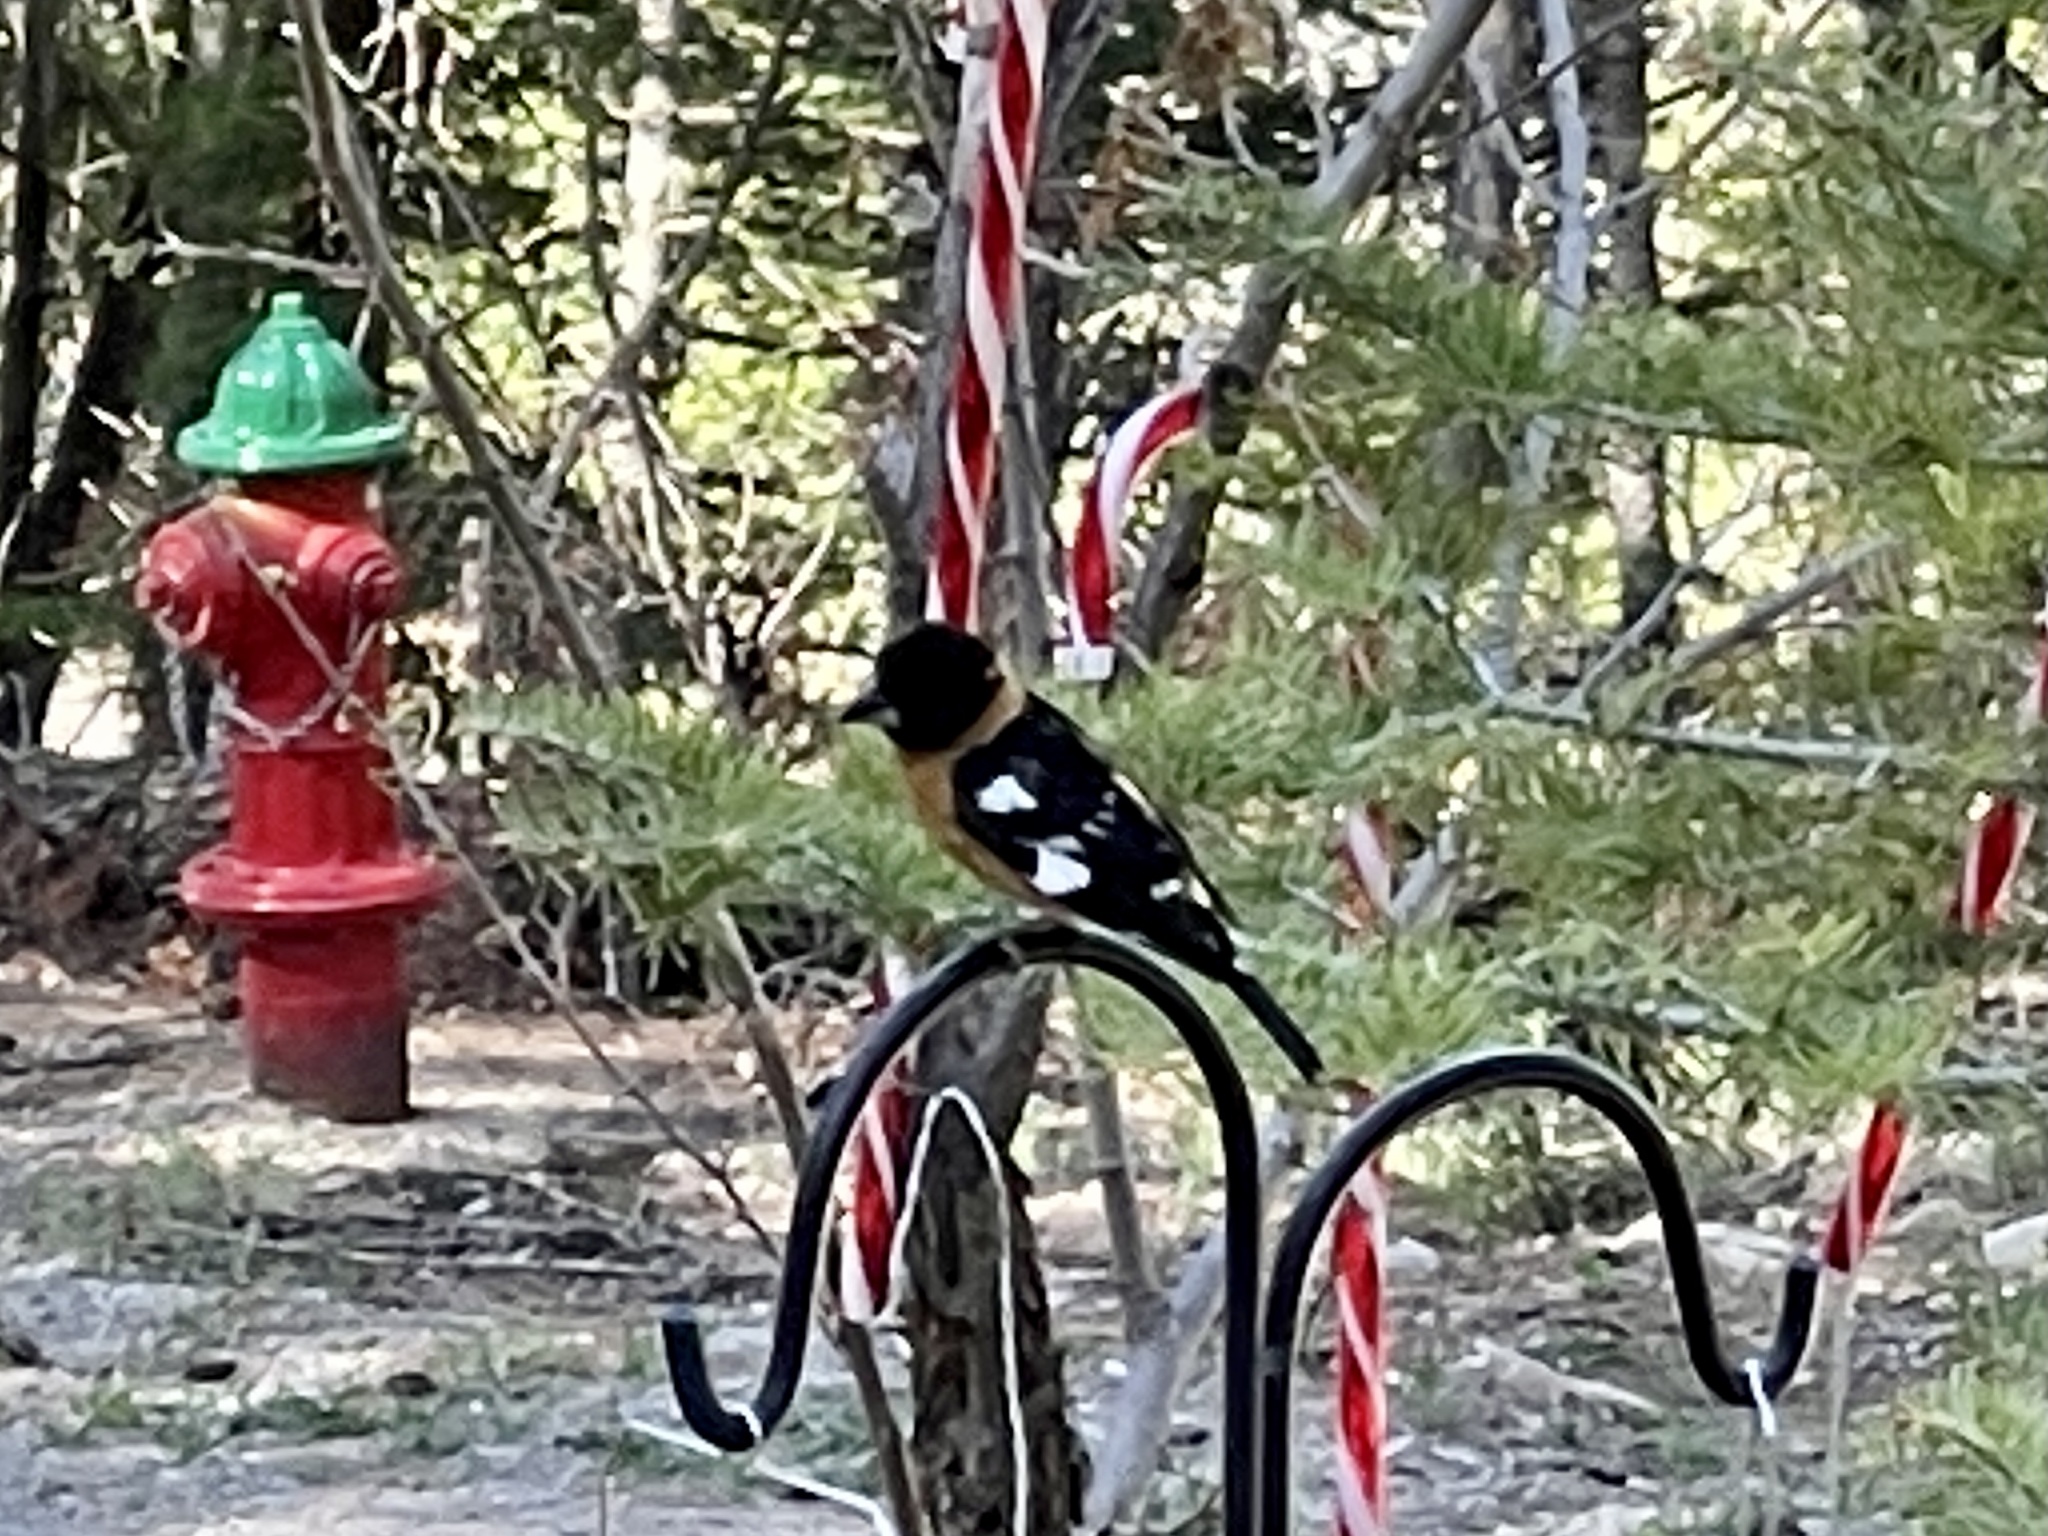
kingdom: Animalia
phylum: Chordata
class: Aves
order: Passeriformes
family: Cardinalidae
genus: Pheucticus
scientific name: Pheucticus melanocephalus
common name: Black-headed grosbeak
